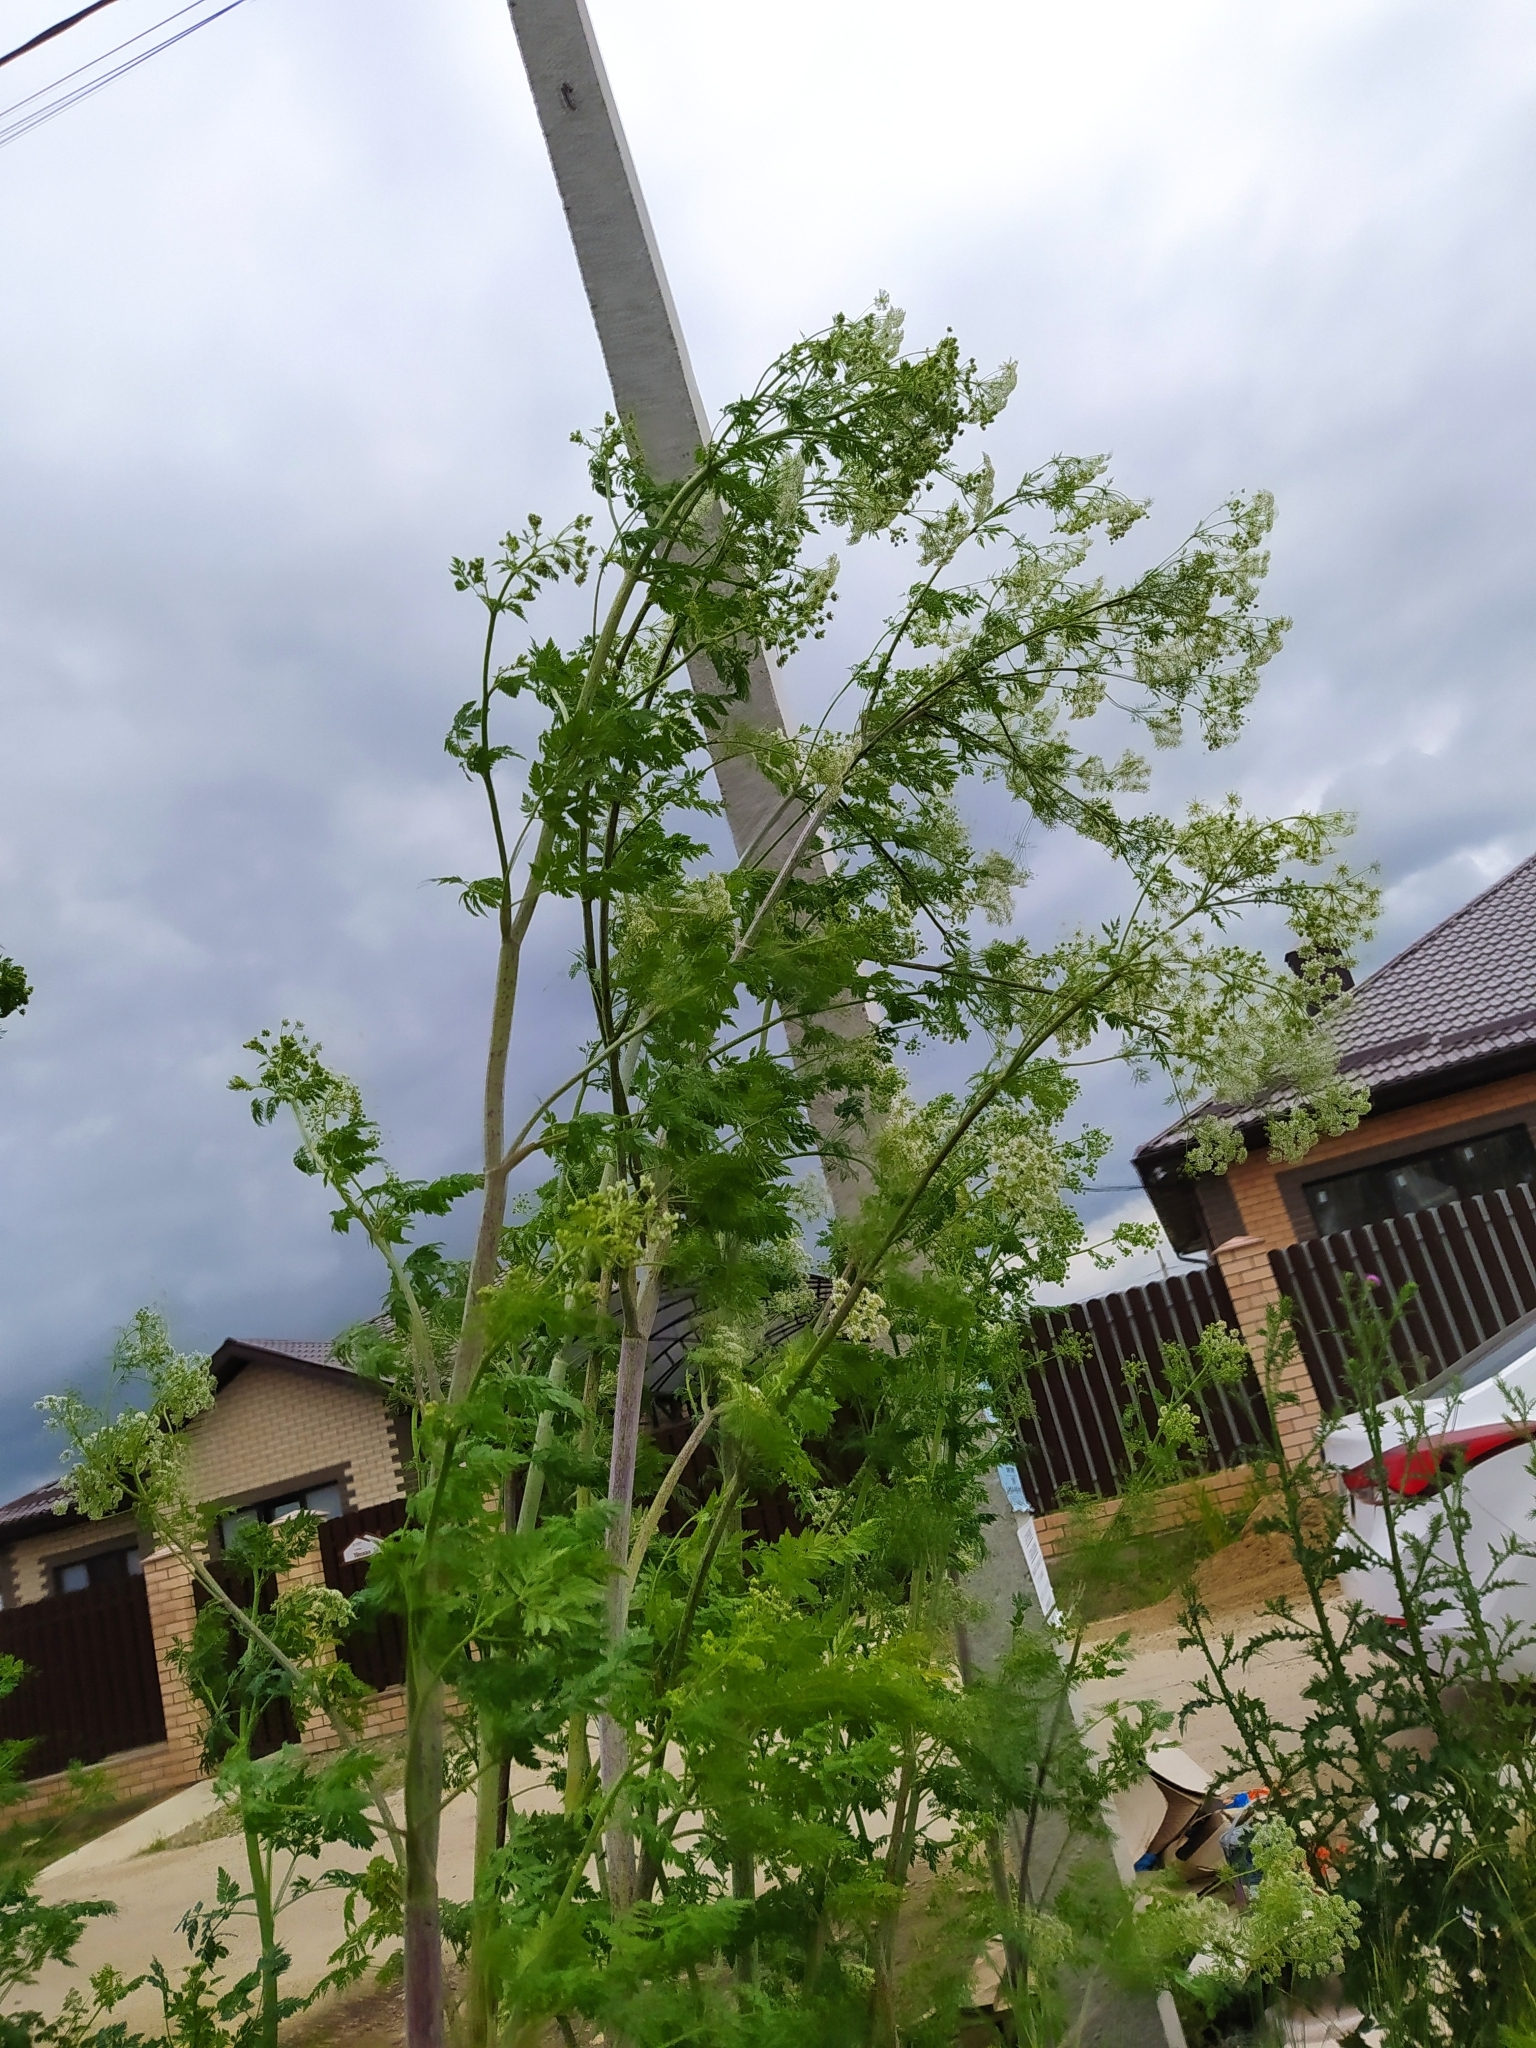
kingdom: Plantae
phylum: Tracheophyta
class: Magnoliopsida
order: Apiales
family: Apiaceae
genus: Conium
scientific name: Conium maculatum
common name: Hemlock
